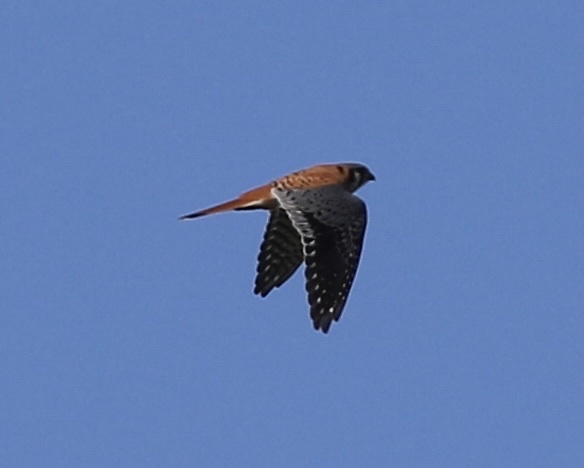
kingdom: Animalia
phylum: Chordata
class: Aves
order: Falconiformes
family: Falconidae
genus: Falco
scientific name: Falco sparverius
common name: American kestrel
